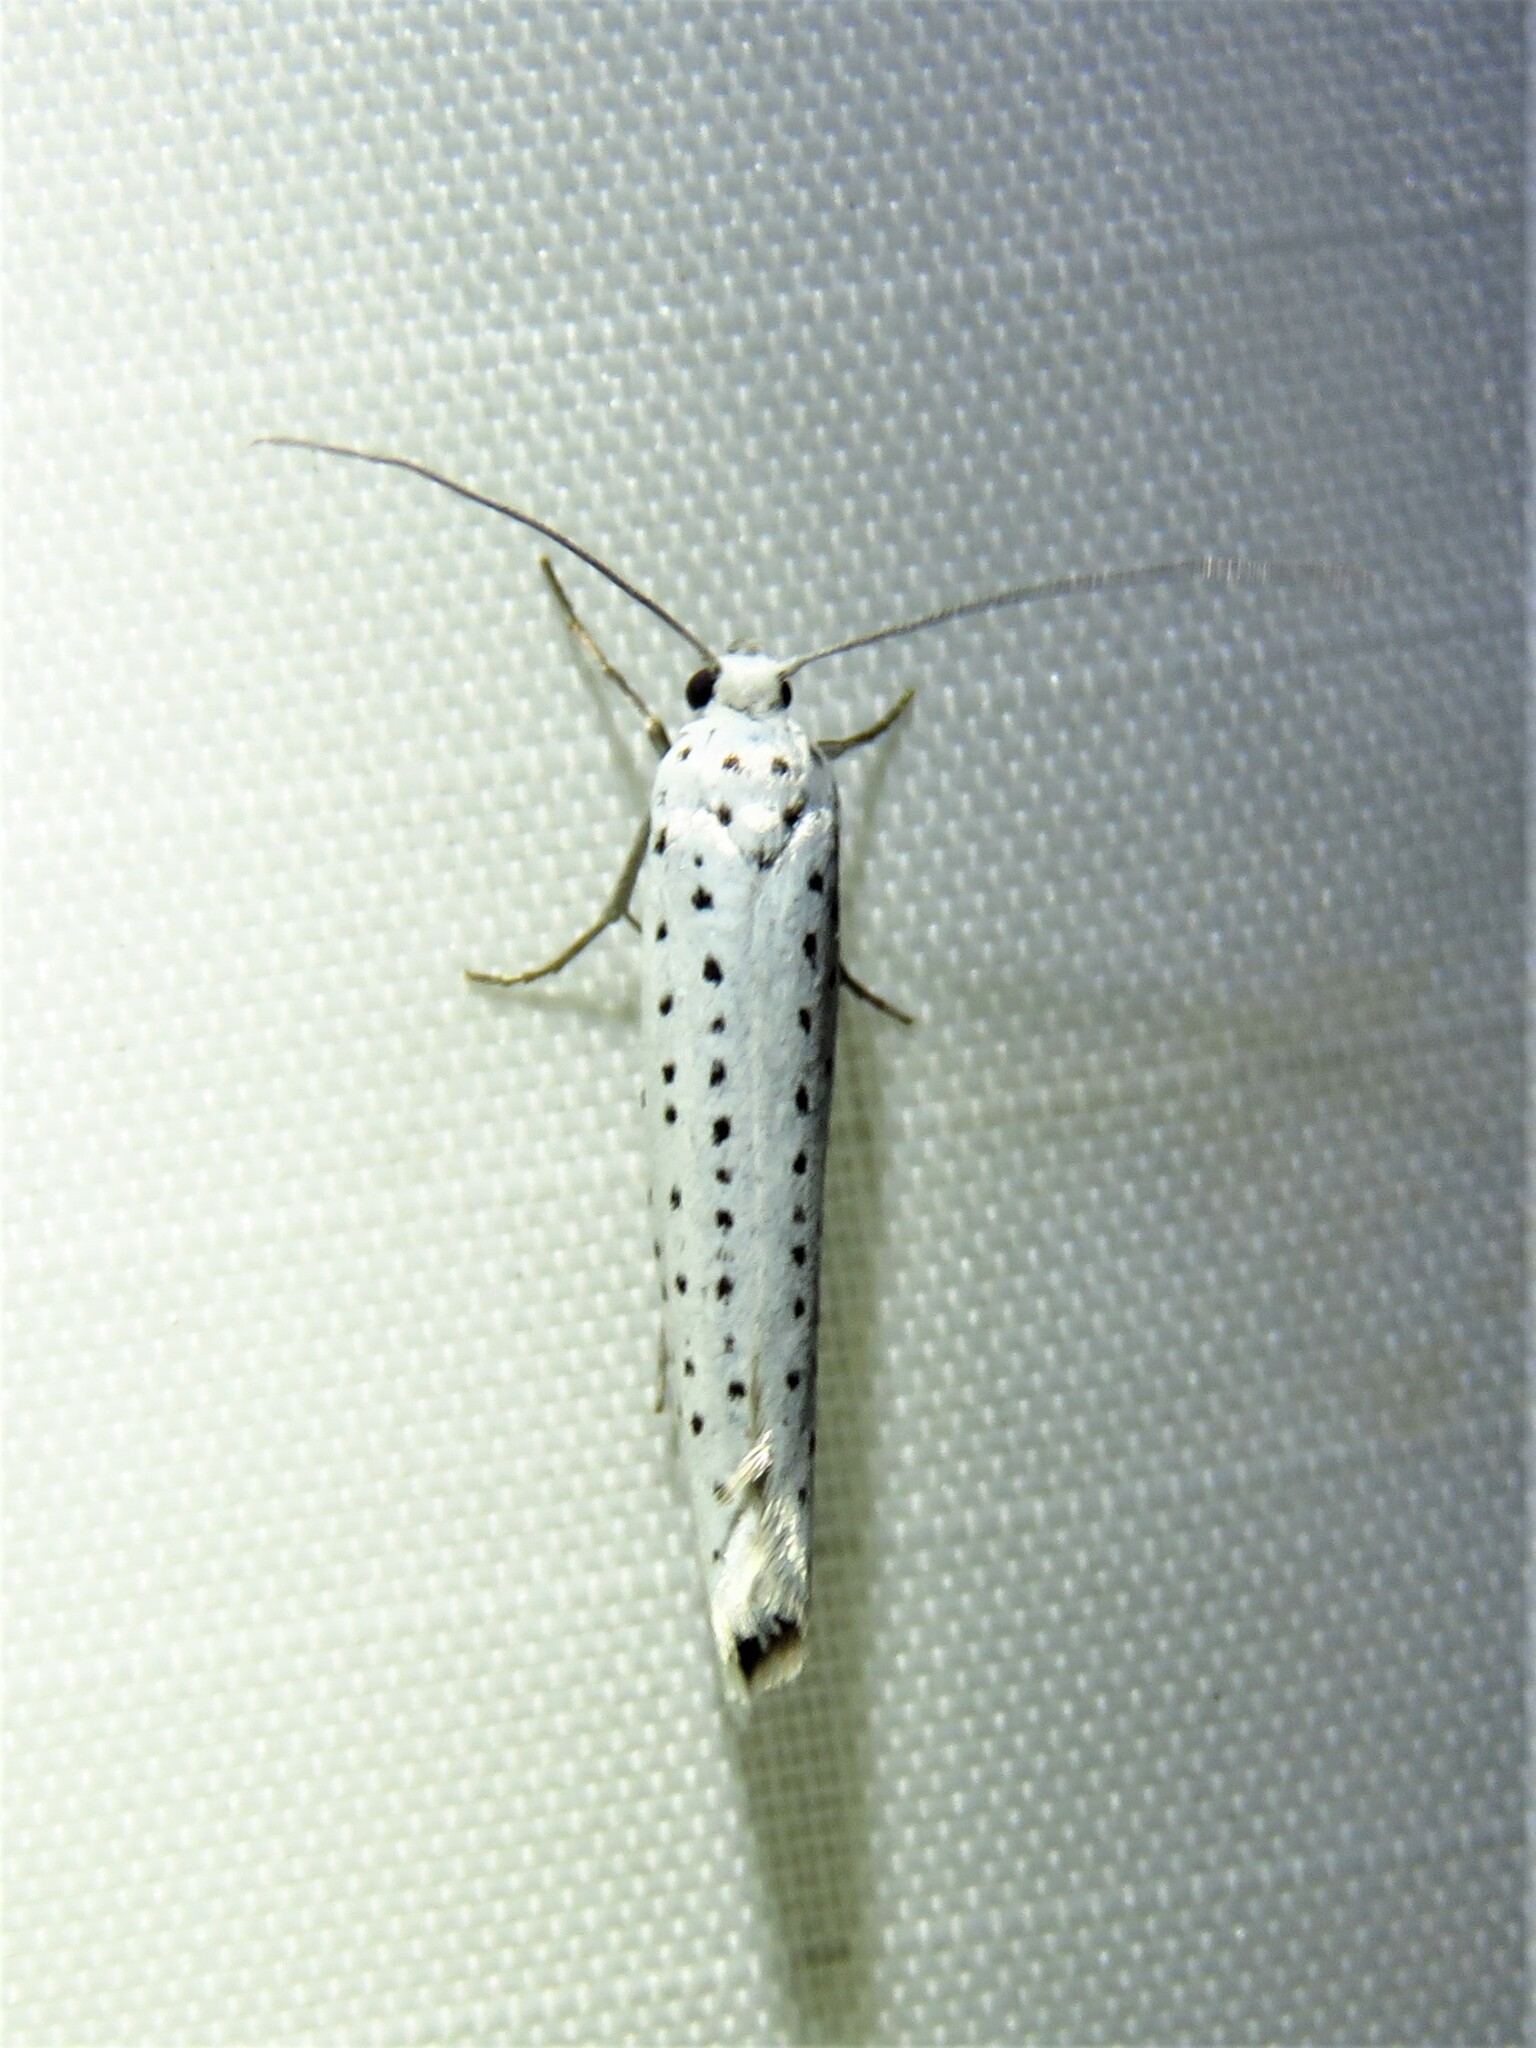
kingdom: Animalia
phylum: Arthropoda
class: Insecta
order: Lepidoptera
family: Yponomeutidae
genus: Yponomeuta
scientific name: Yponomeuta evonymella
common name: Bird-cherry ermine
